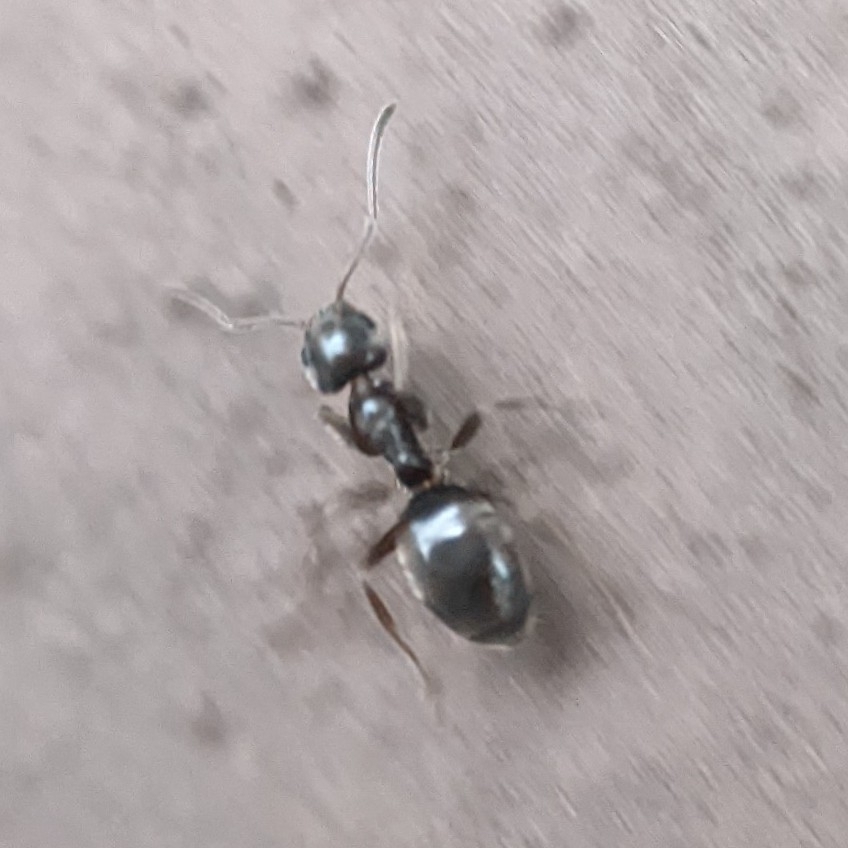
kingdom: Animalia
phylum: Arthropoda
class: Insecta
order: Hymenoptera
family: Formicidae
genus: Tapinoma
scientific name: Tapinoma sessile
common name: Odorous house ant
